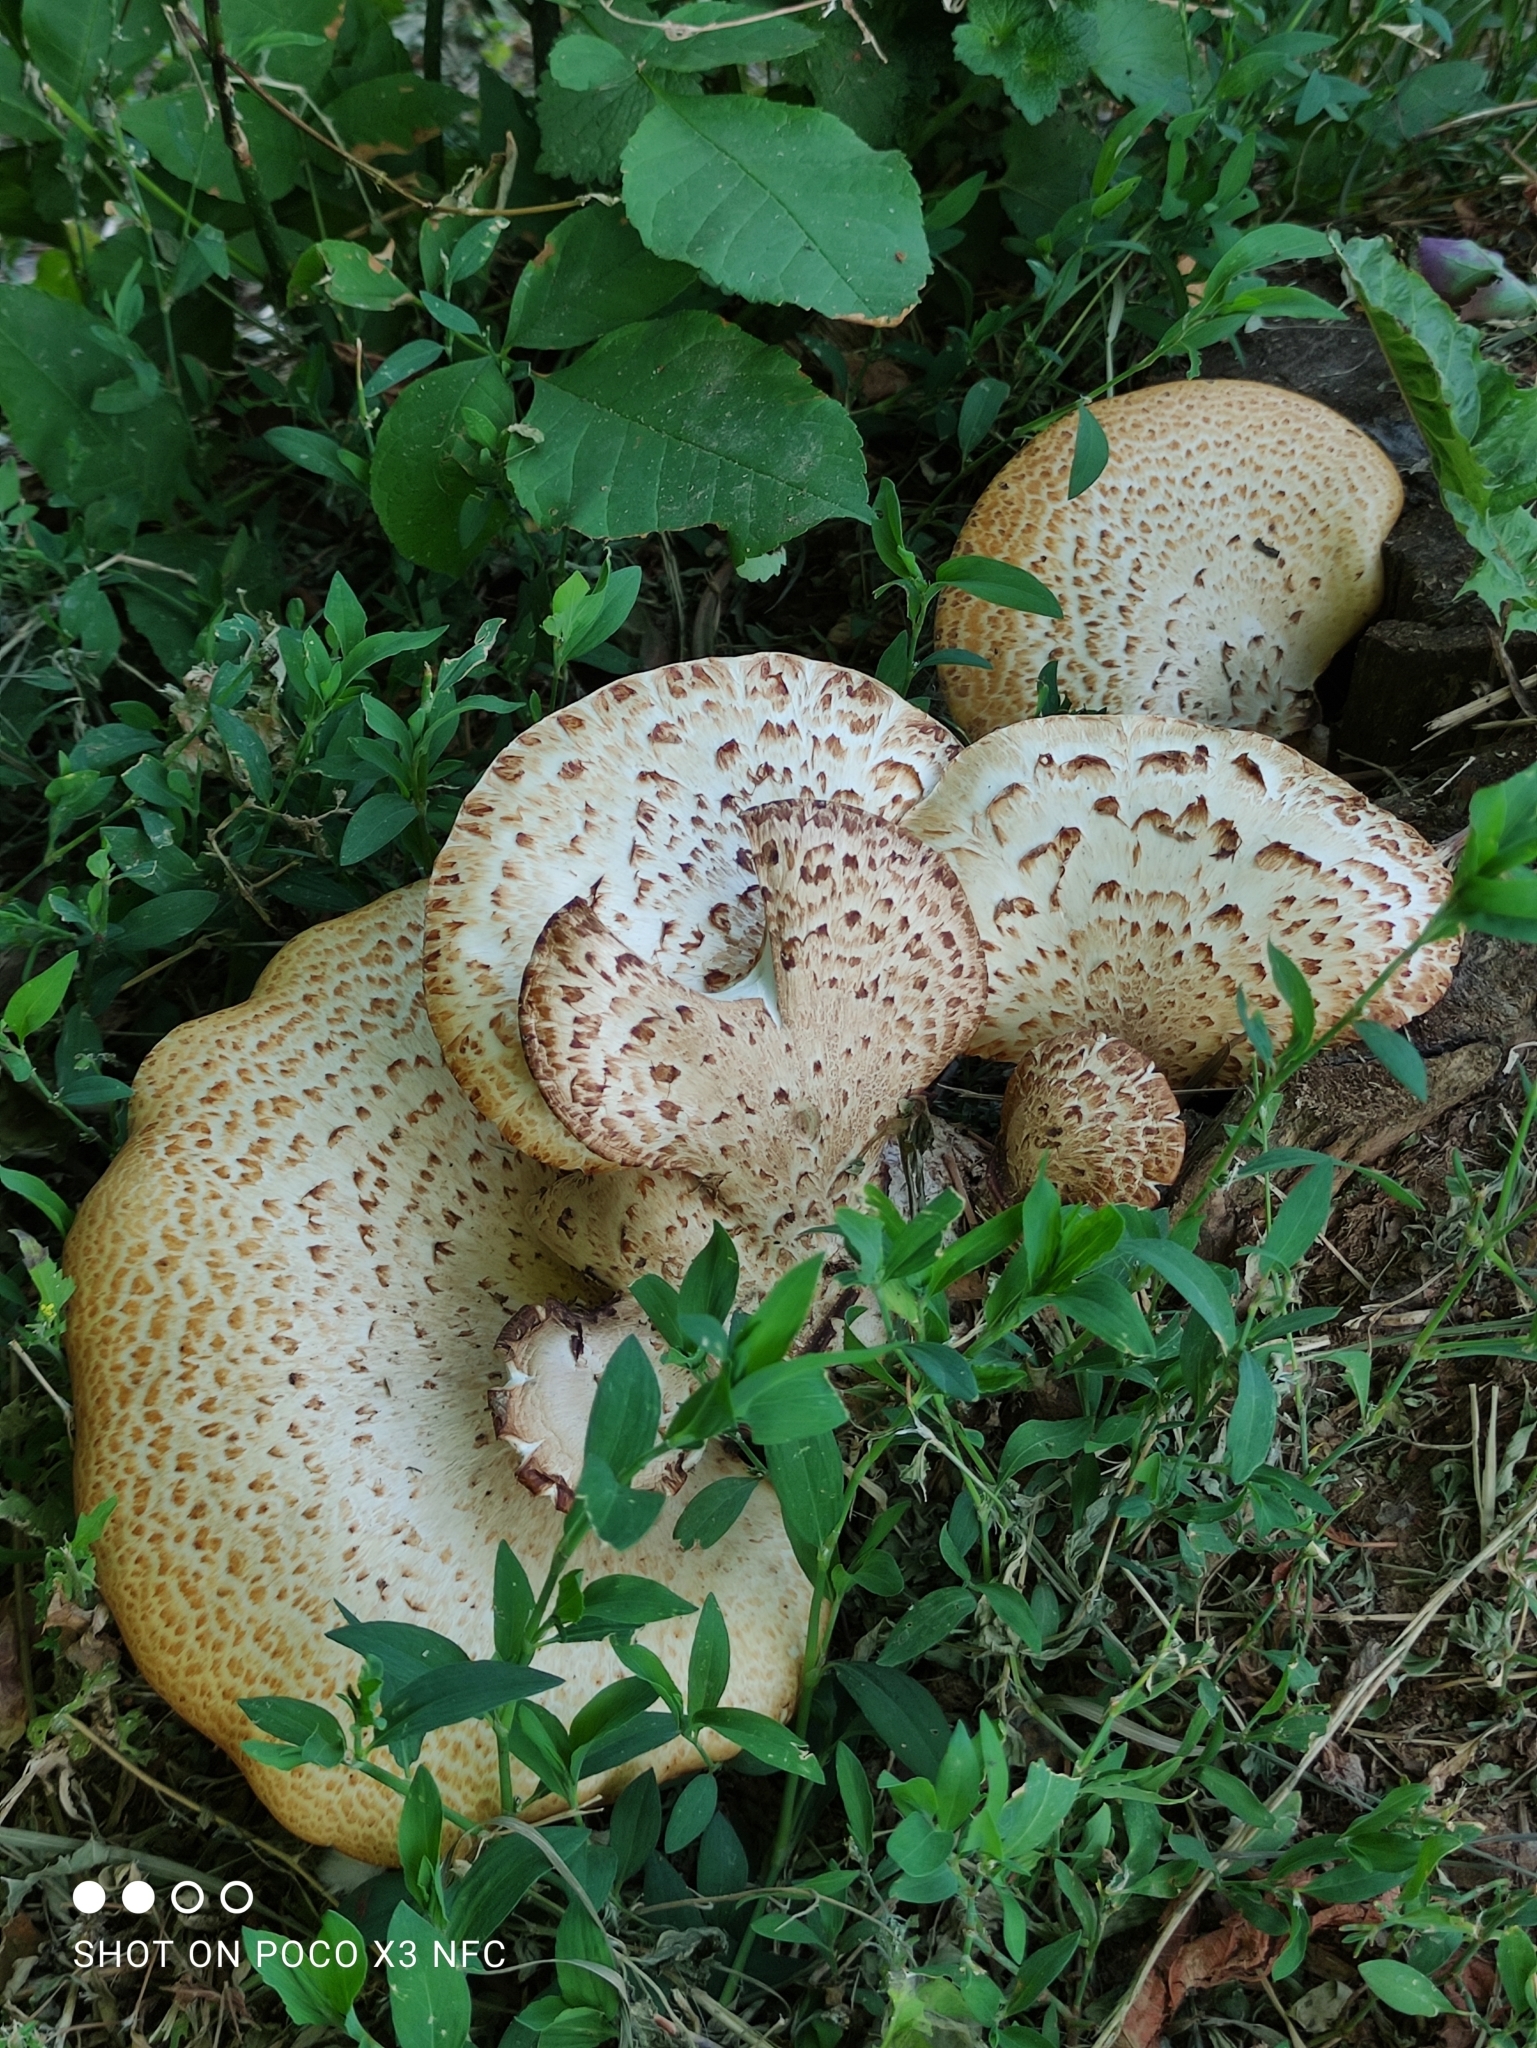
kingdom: Fungi
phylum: Basidiomycota
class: Agaricomycetes
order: Polyporales
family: Polyporaceae
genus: Cerioporus
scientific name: Cerioporus squamosus
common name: Dryad's saddle
